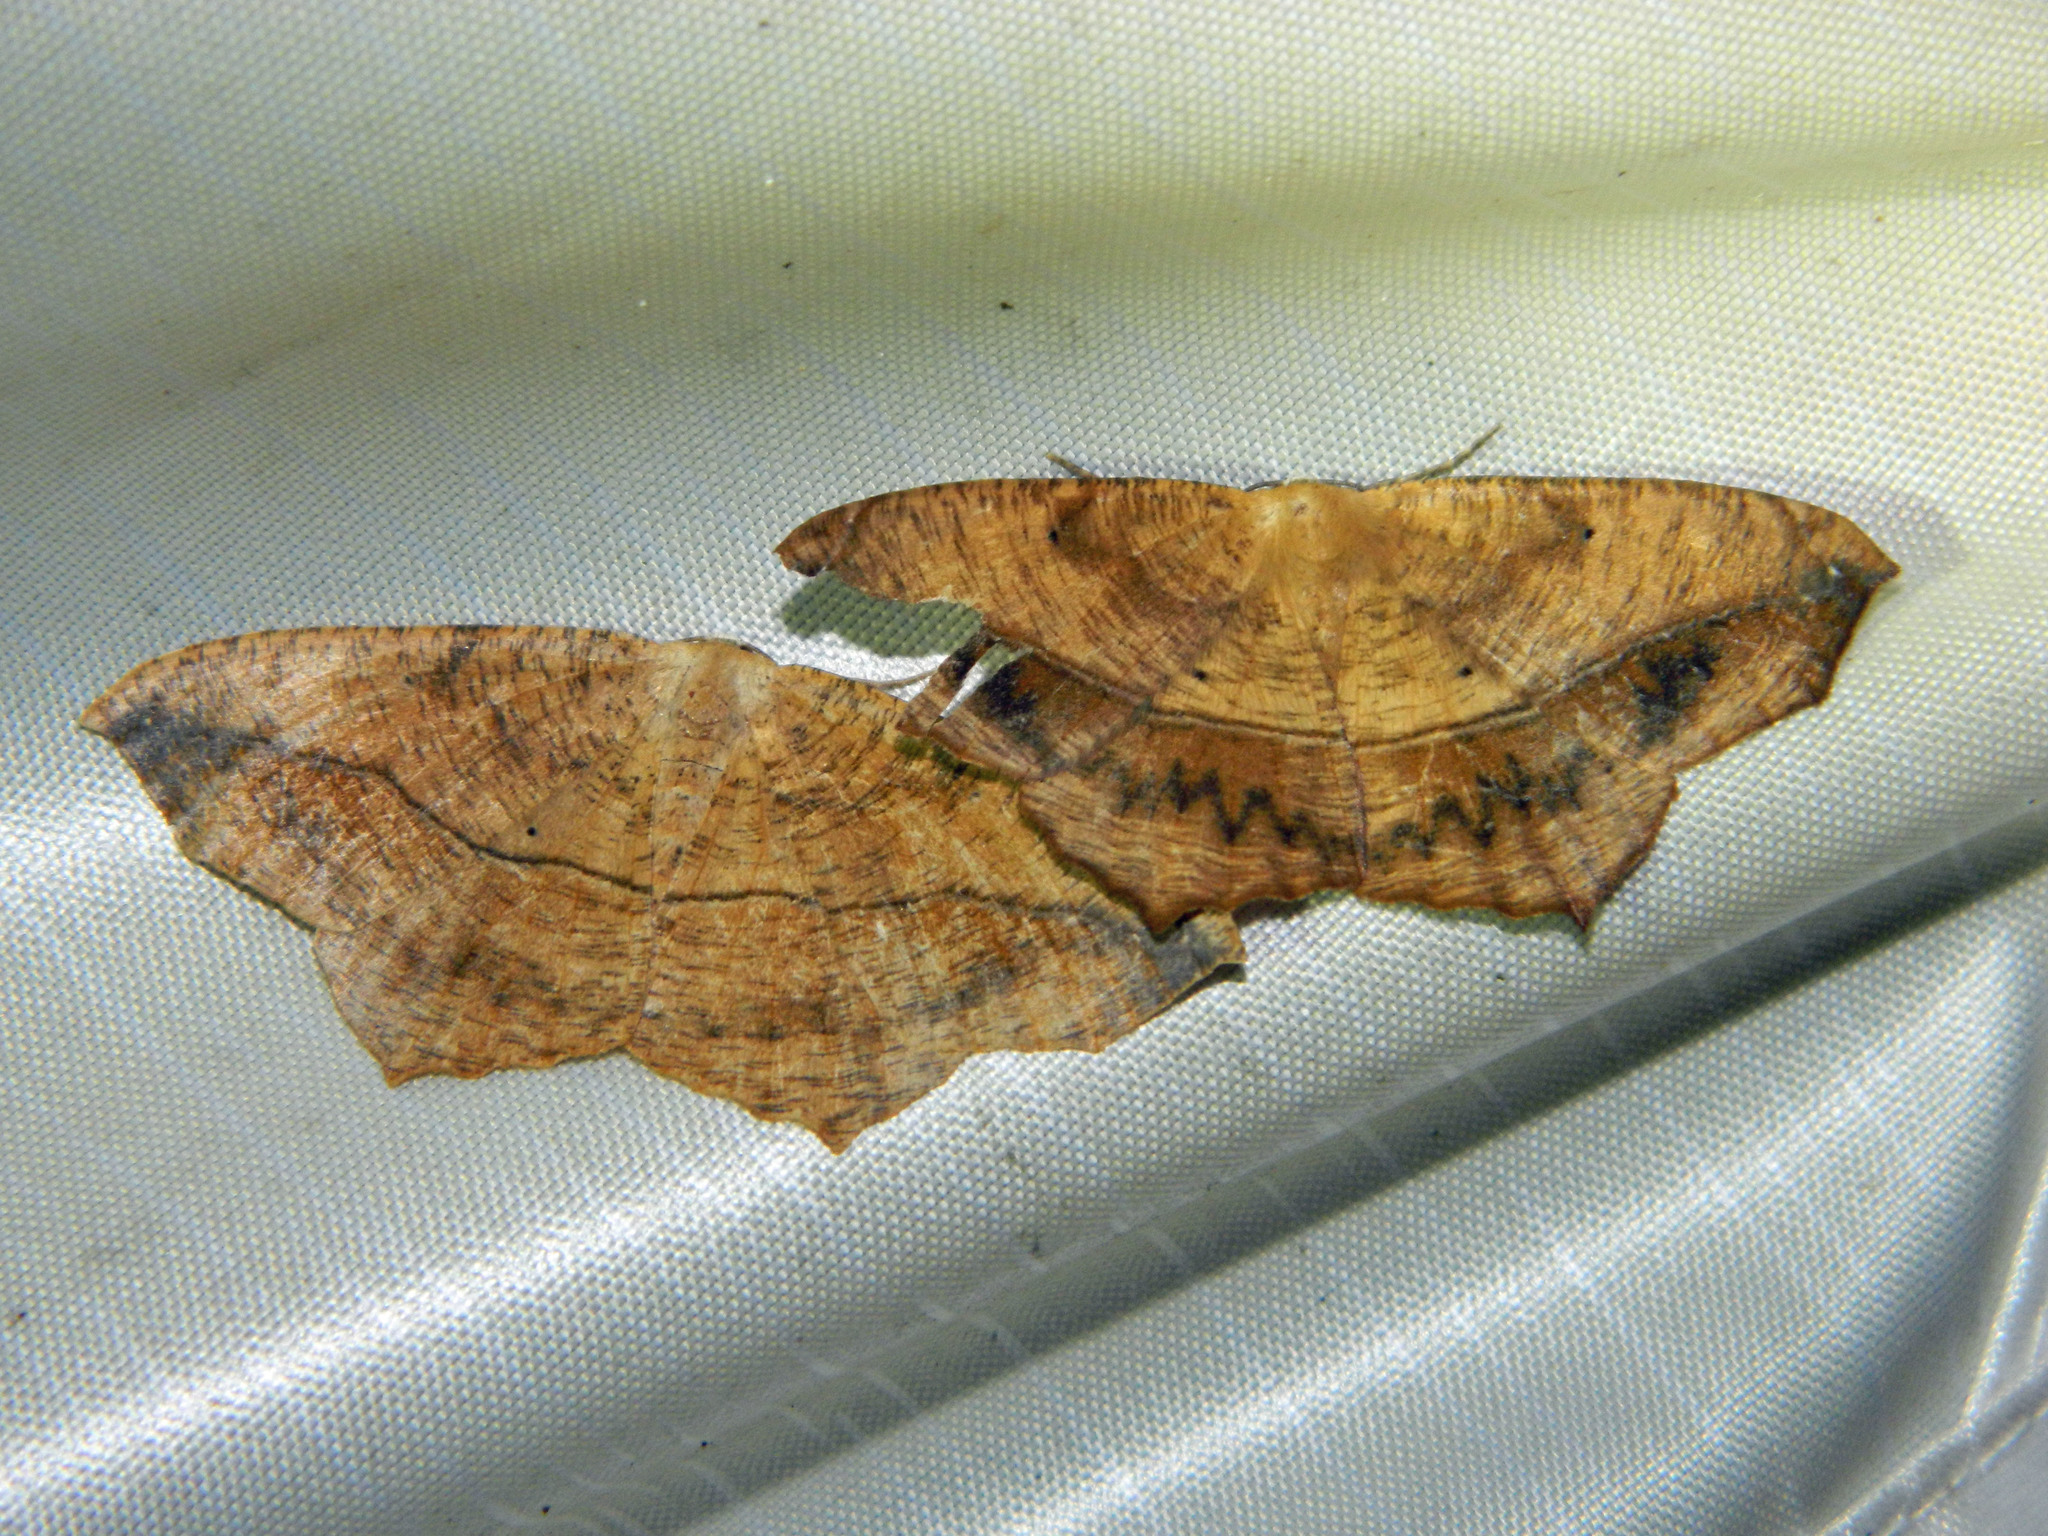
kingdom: Animalia
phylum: Arthropoda
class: Insecta
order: Lepidoptera
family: Geometridae
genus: Prochoerodes
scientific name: Prochoerodes lineola
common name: Large maple spanworm
